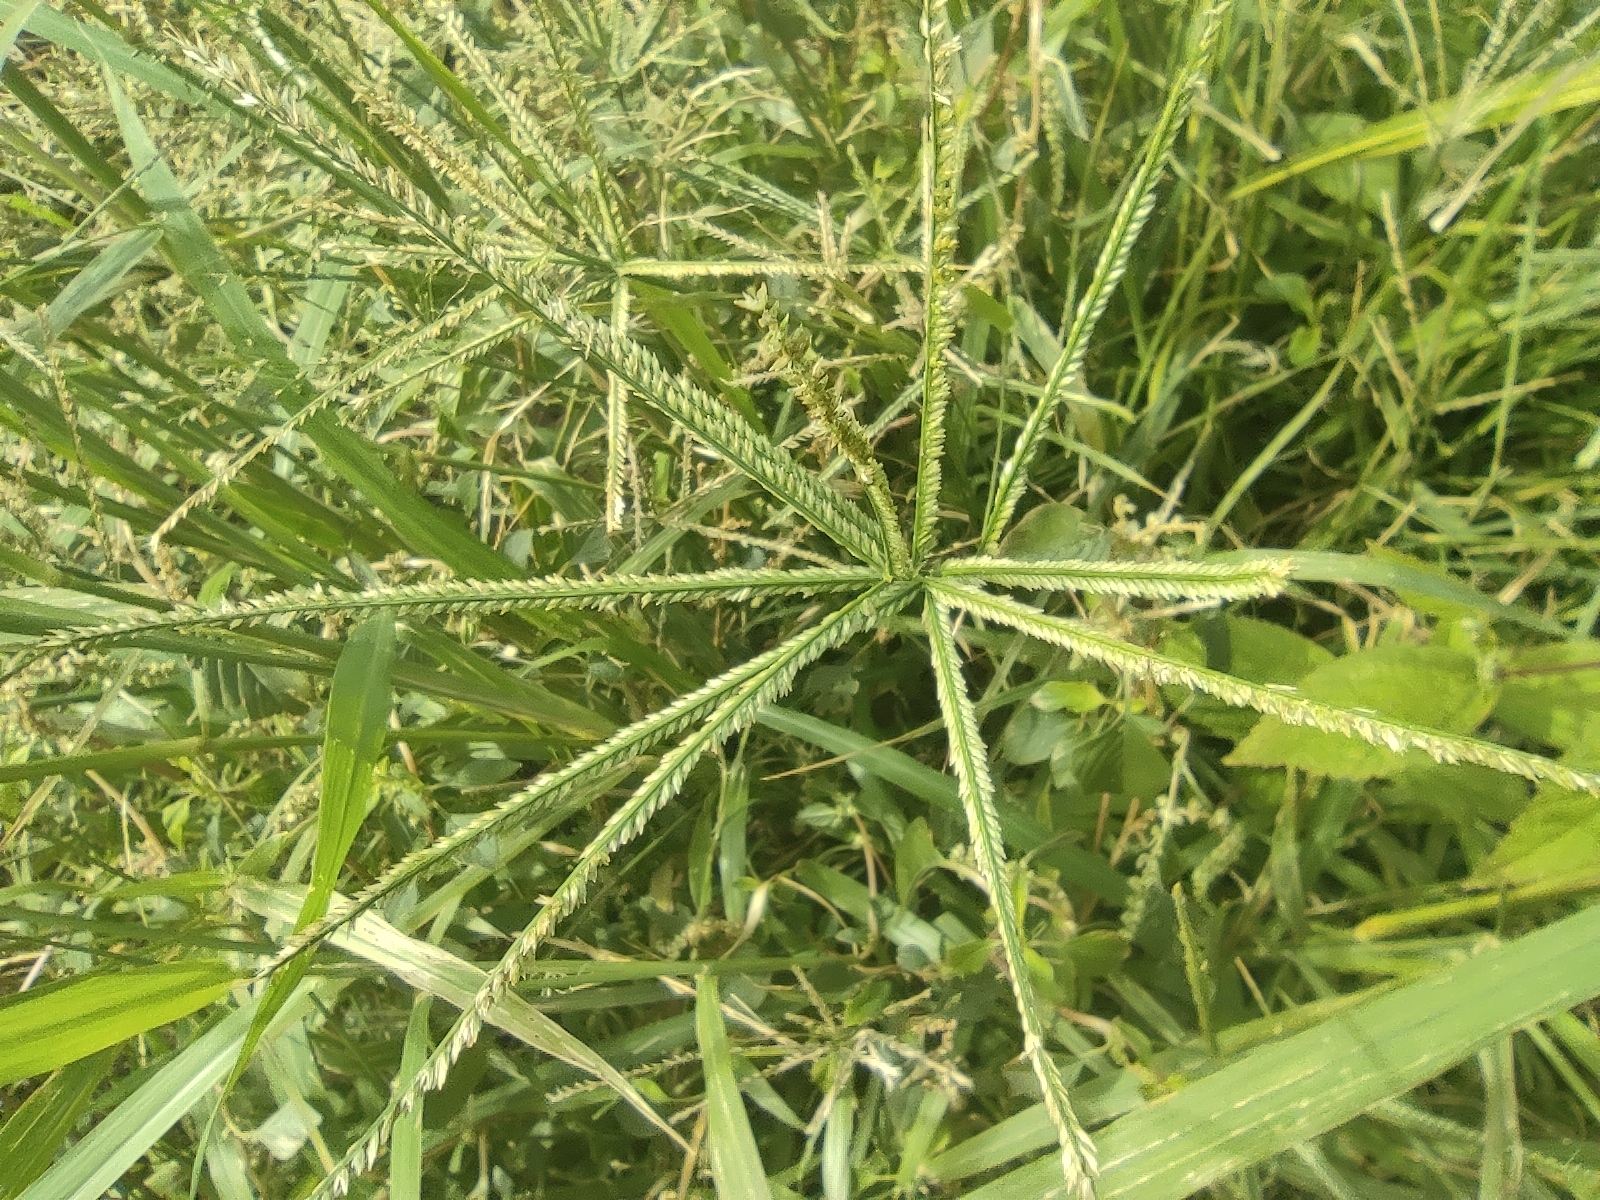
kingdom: Plantae
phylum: Tracheophyta
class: Liliopsida
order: Poales
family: Poaceae
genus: Eleusine
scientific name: Eleusine indica
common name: Yard-grass
